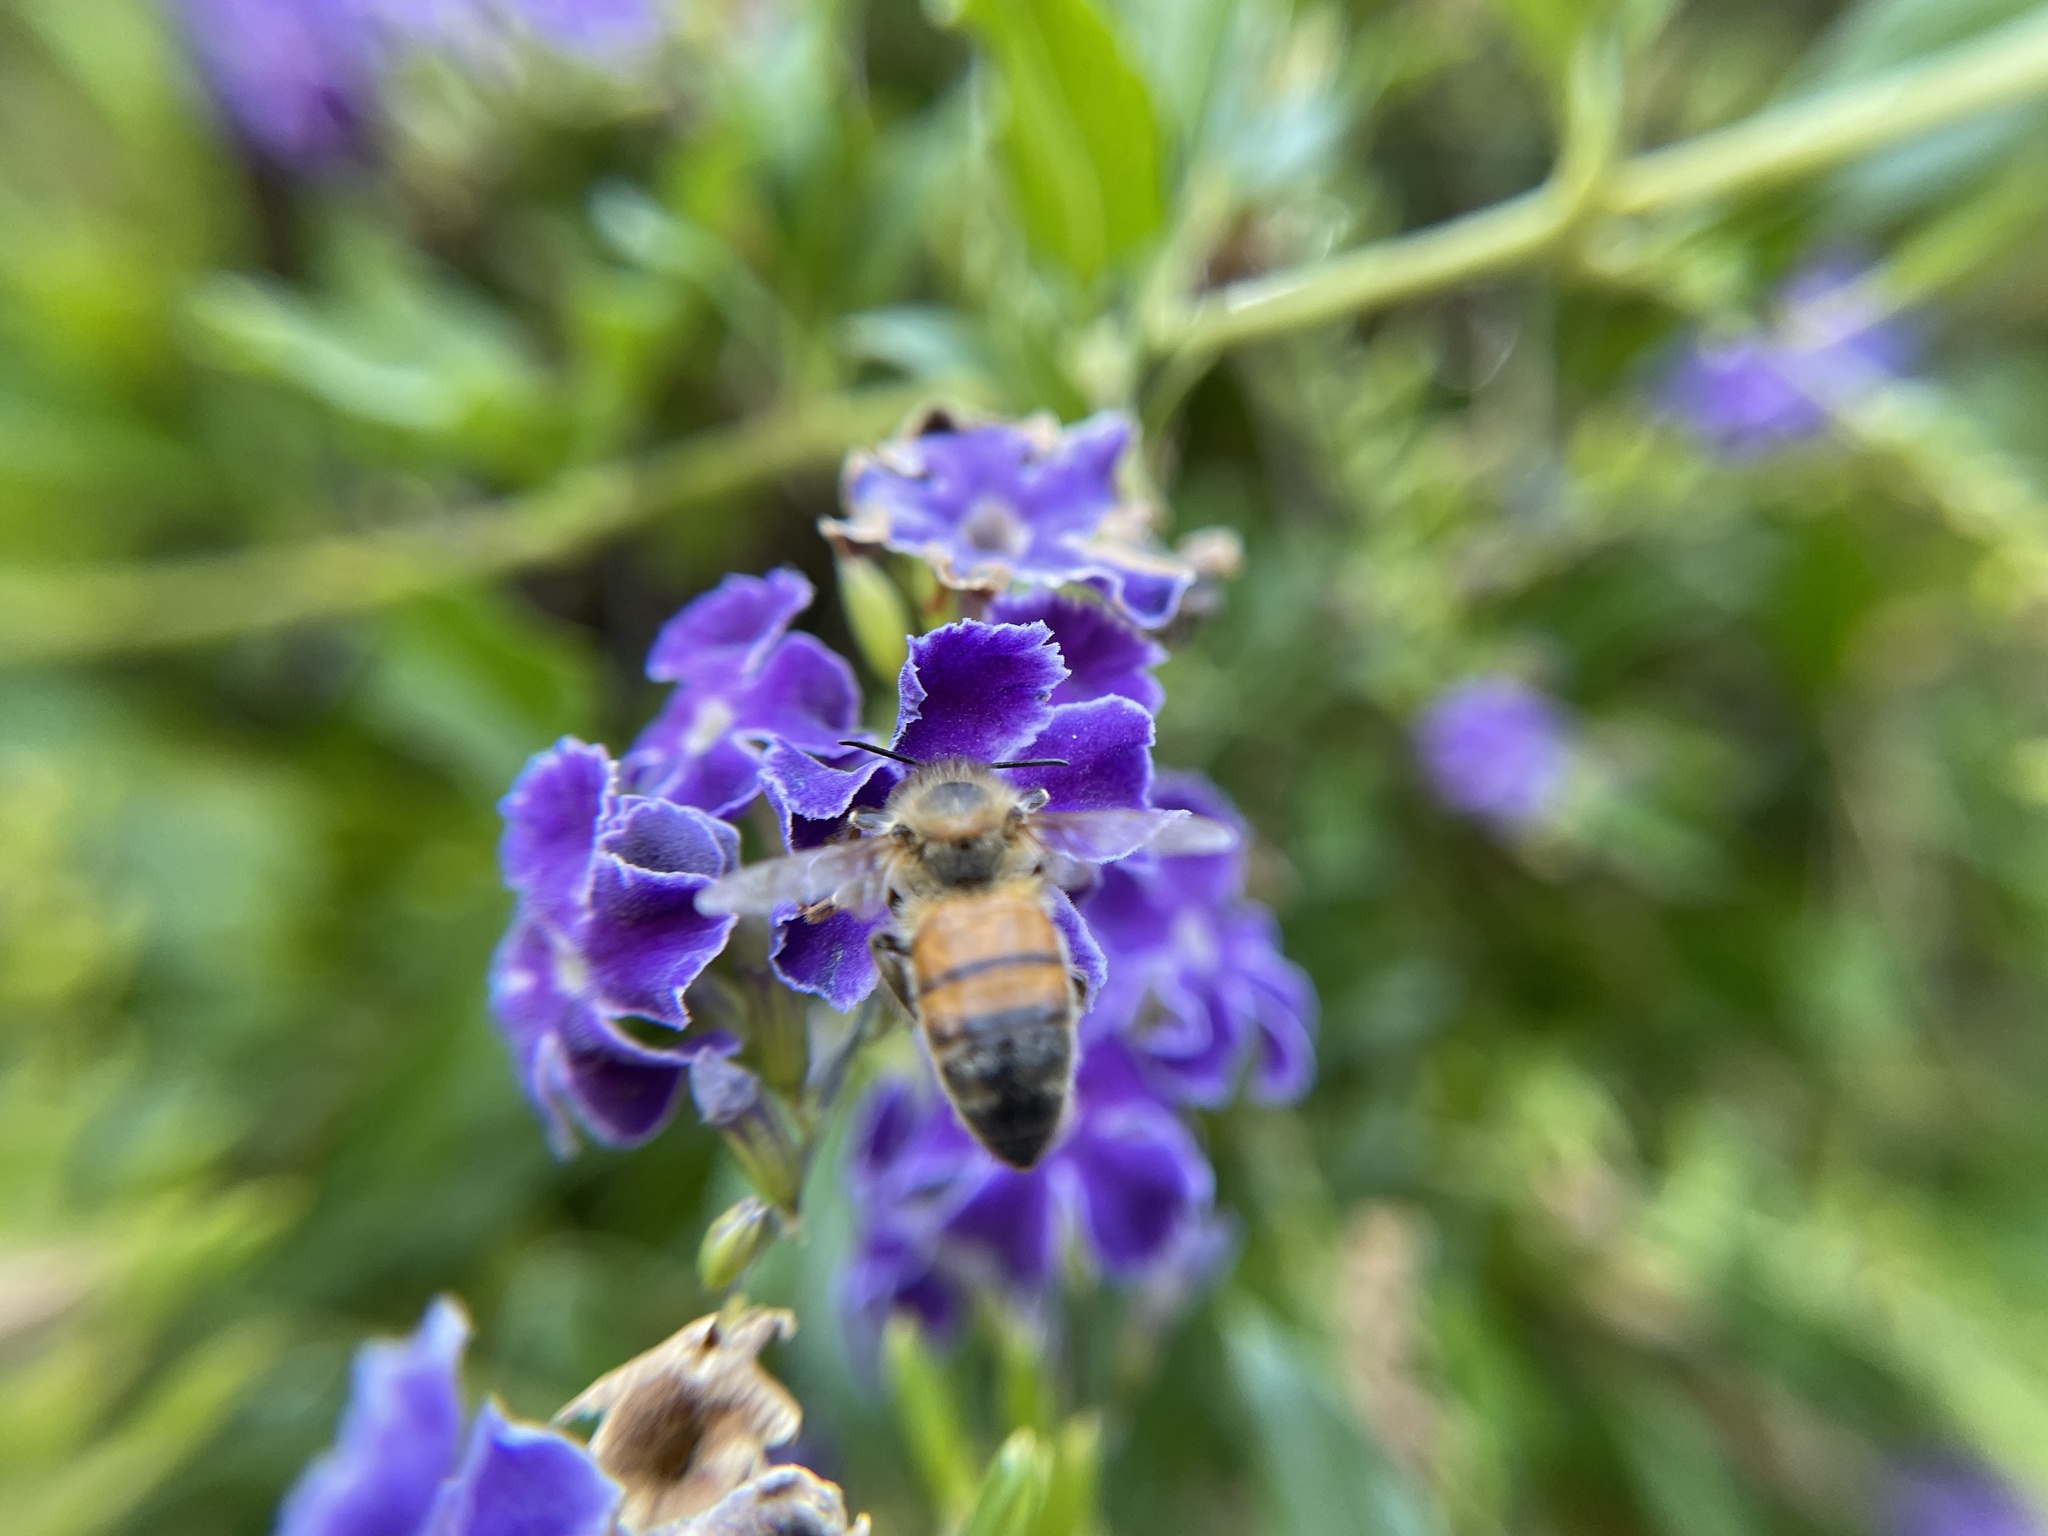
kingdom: Animalia
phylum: Arthropoda
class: Insecta
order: Hymenoptera
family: Apidae
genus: Apis
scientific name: Apis mellifera
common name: Honey bee
